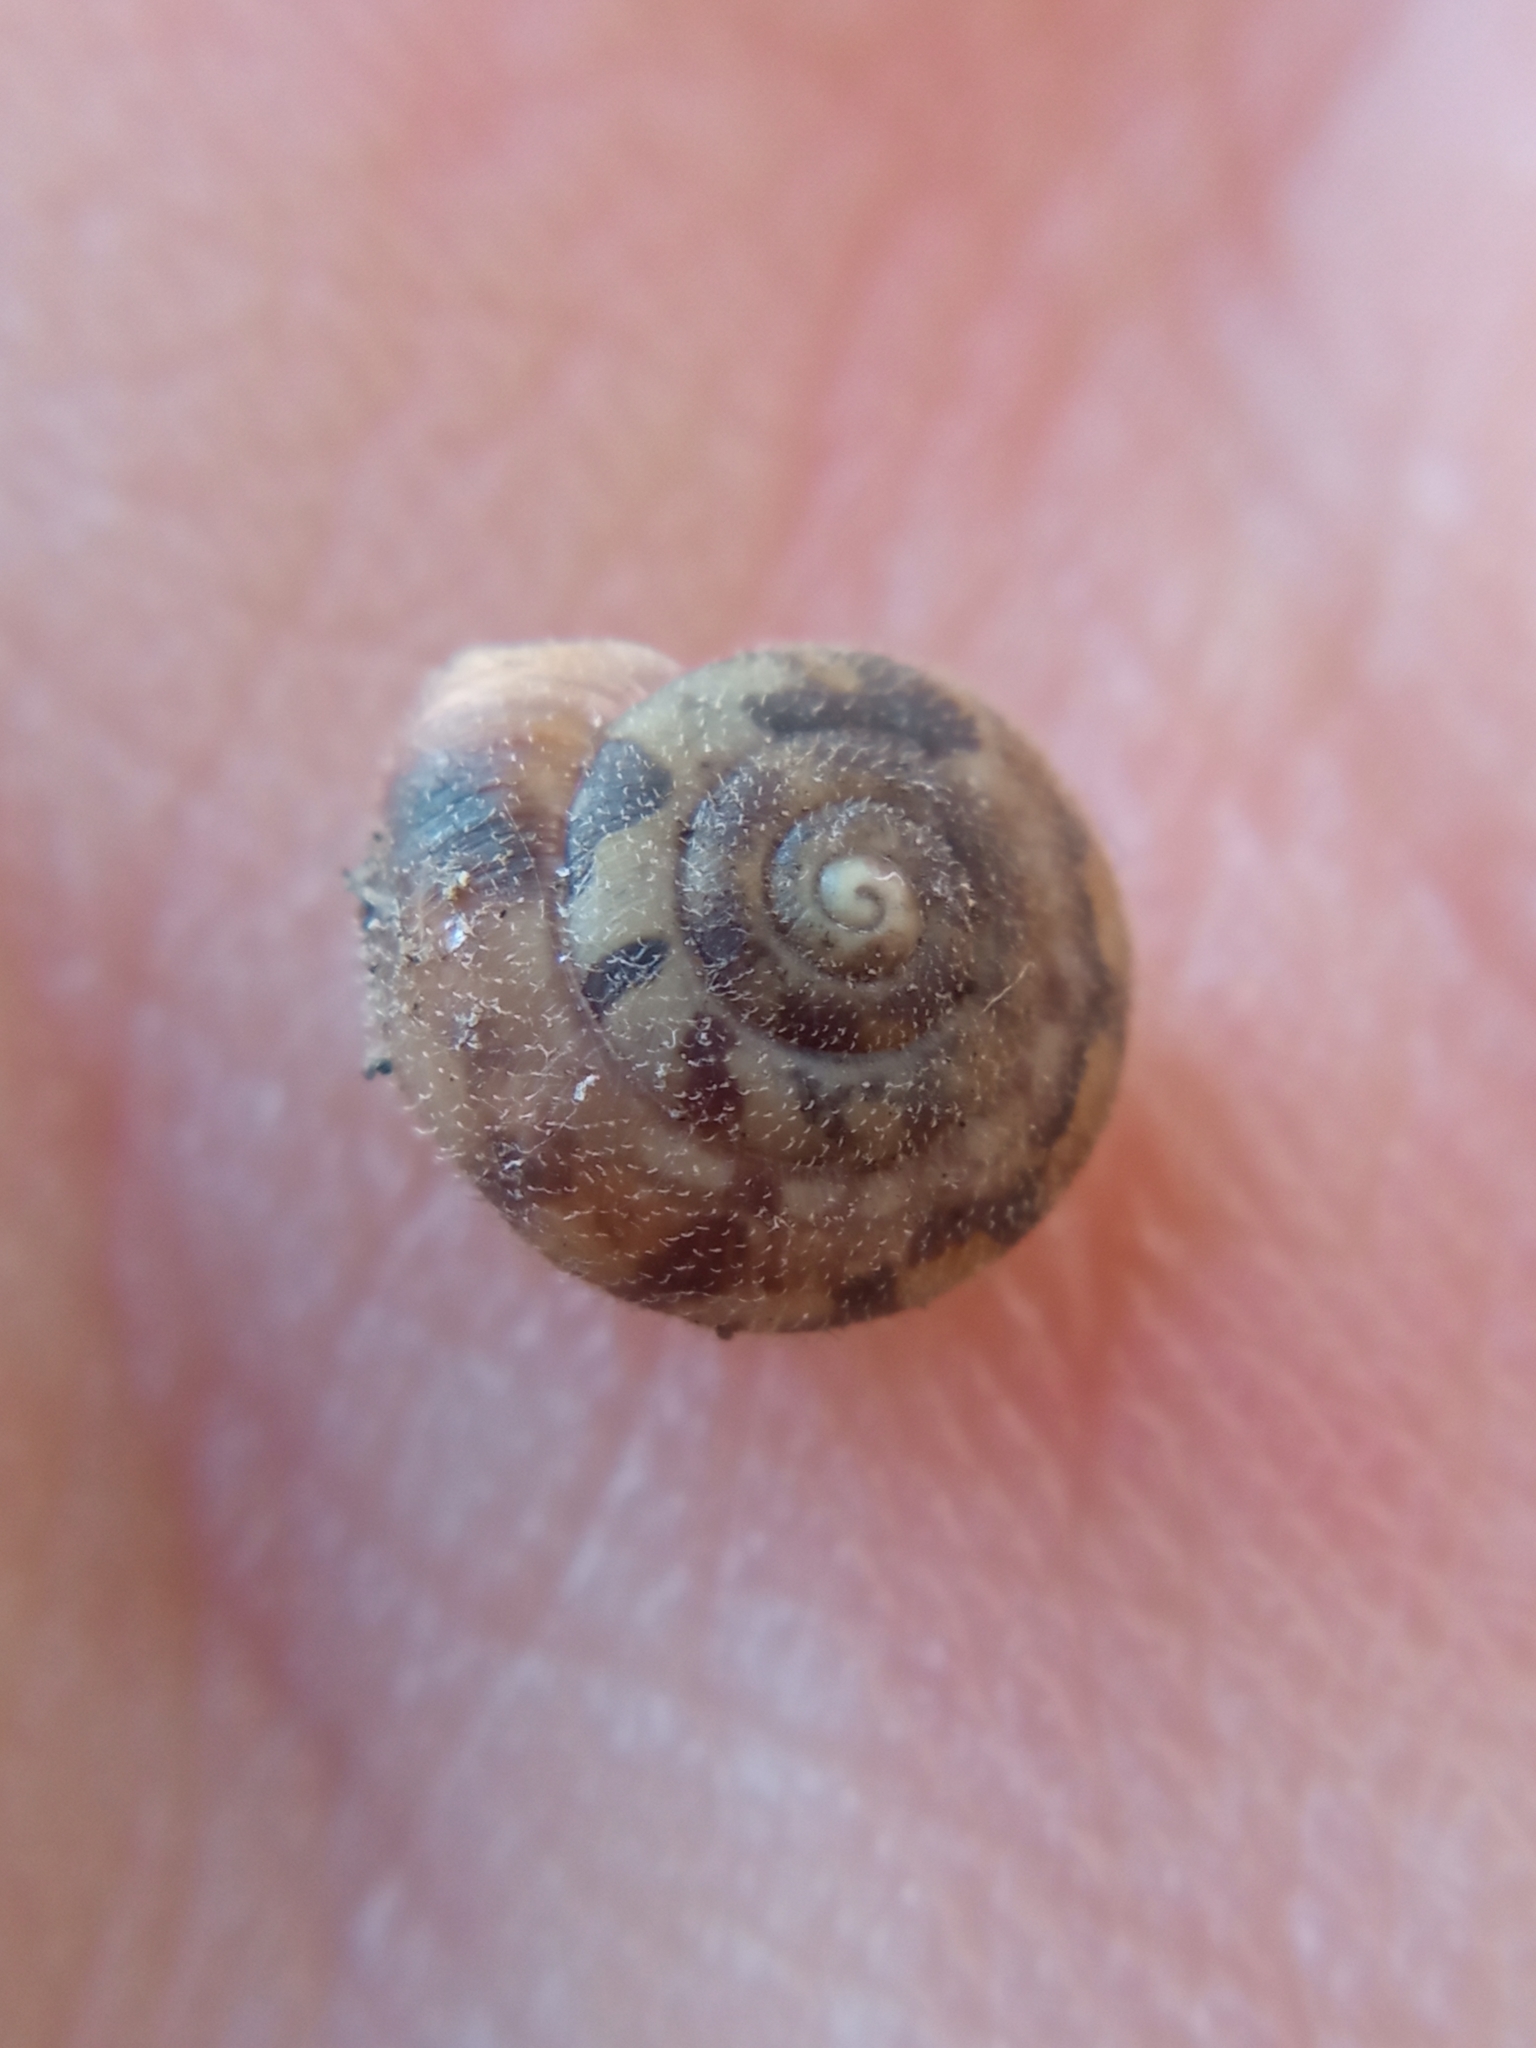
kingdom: Animalia
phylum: Mollusca
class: Gastropoda
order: Stylommatophora
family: Hygromiidae
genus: Trochulus
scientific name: Trochulus hispidus
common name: Hairy snail
